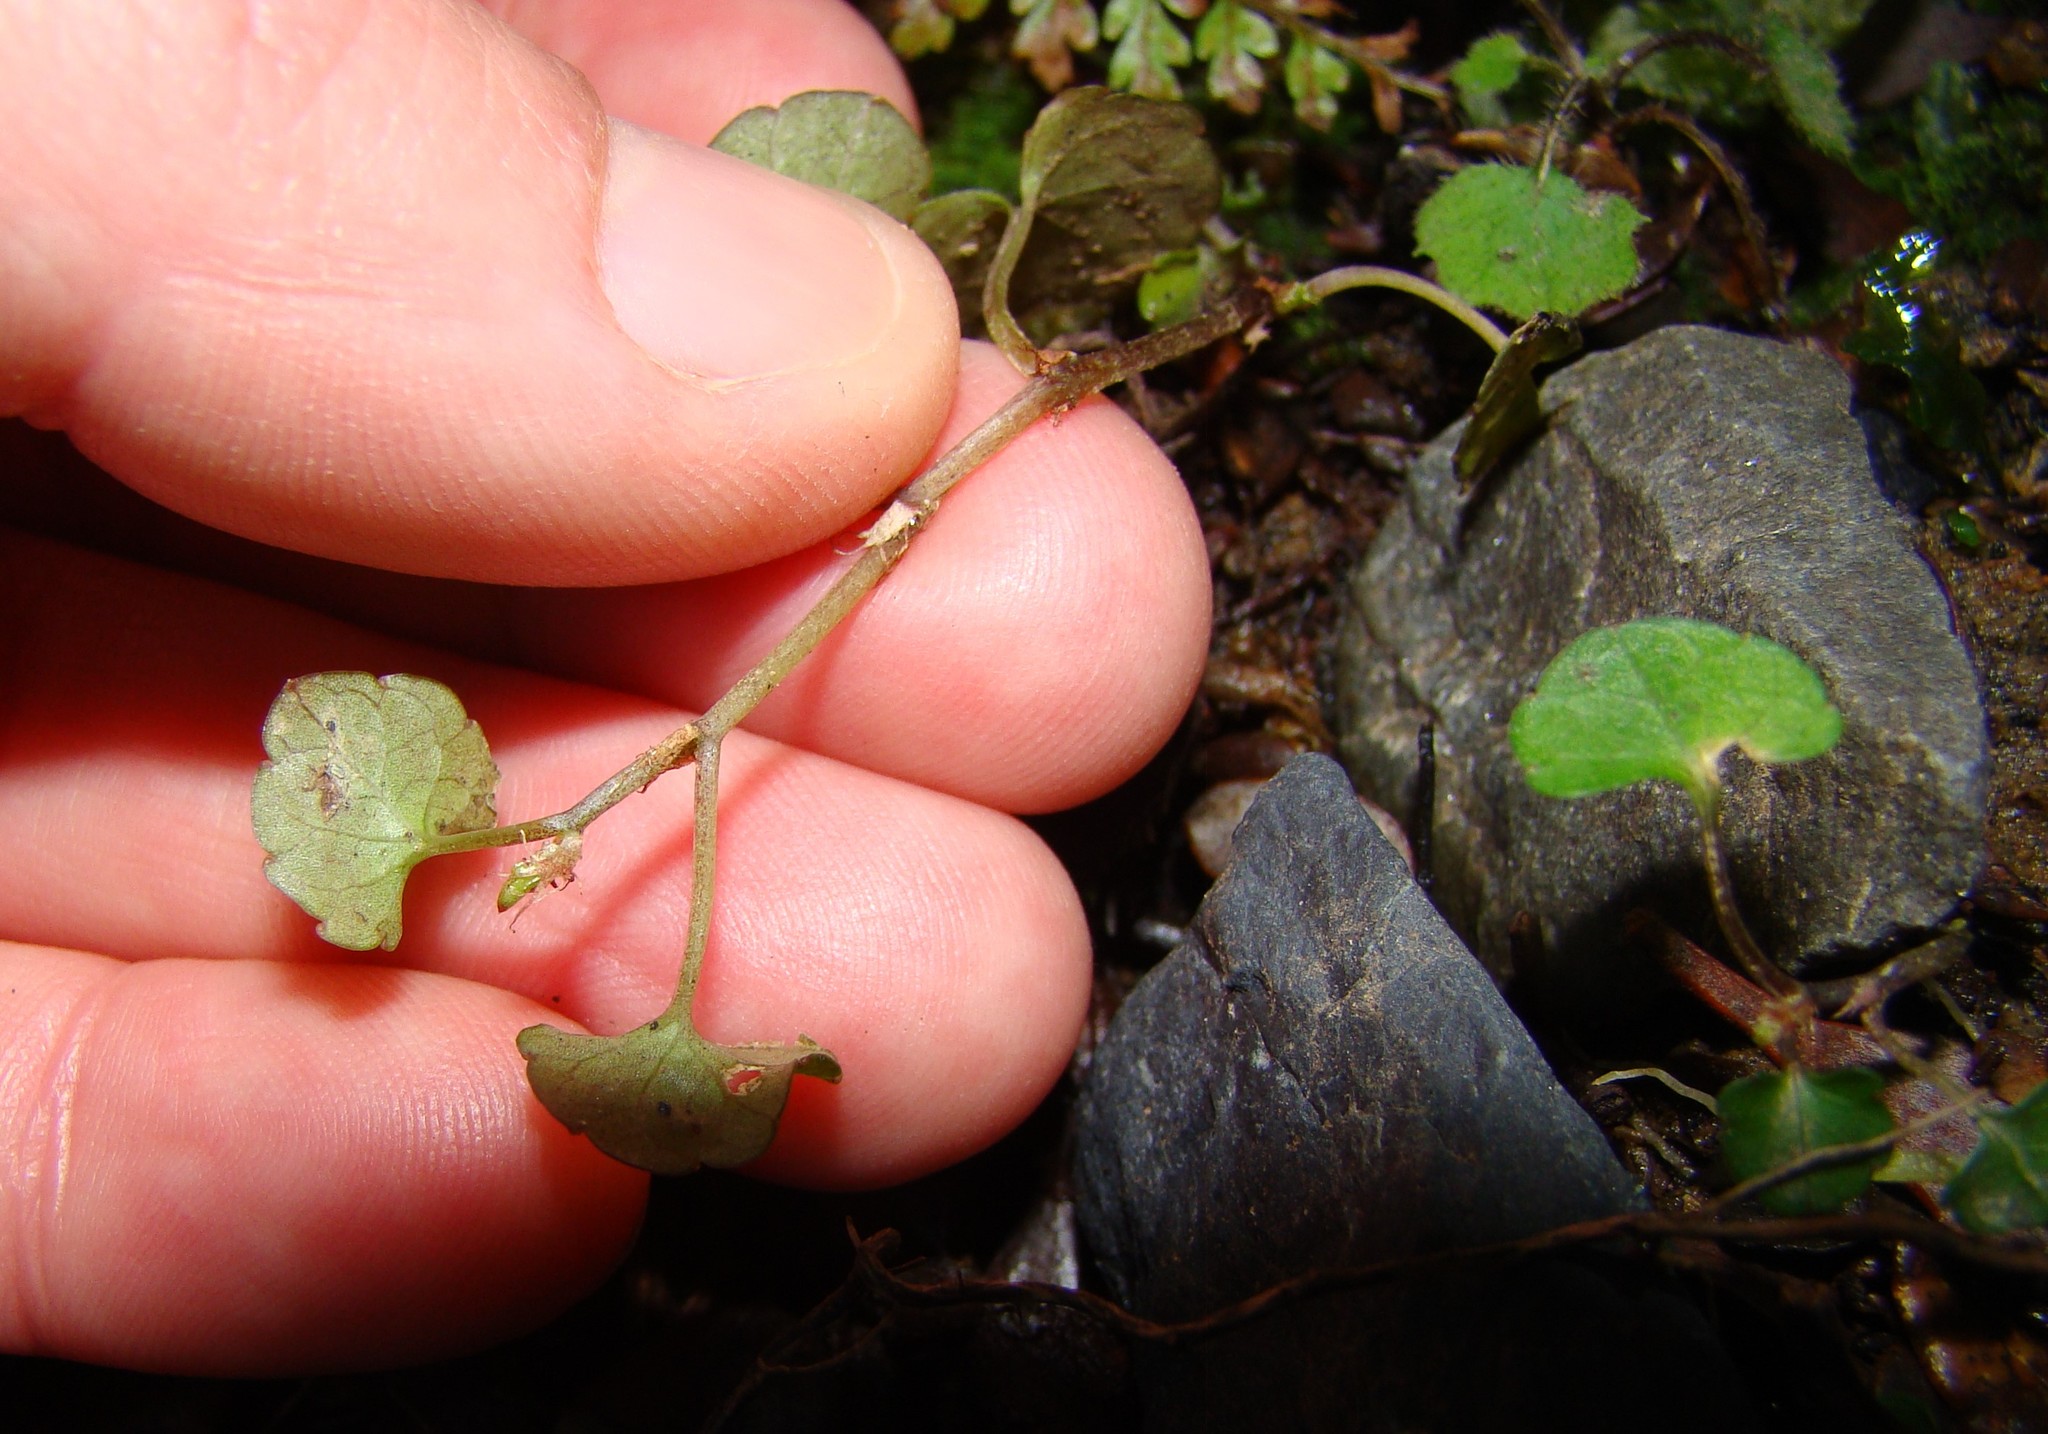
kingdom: Plantae
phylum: Tracheophyta
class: Magnoliopsida
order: Malpighiales
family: Violaceae
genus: Viola
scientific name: Viola filicaulis
